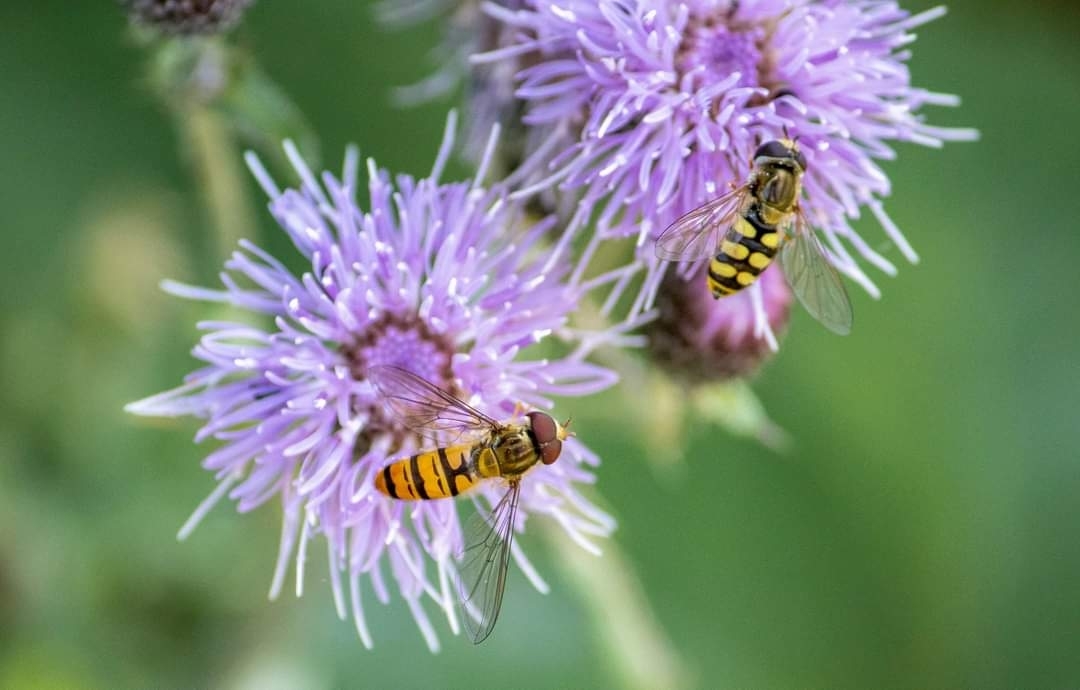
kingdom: Animalia
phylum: Arthropoda
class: Insecta
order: Diptera
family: Syrphidae
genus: Episyrphus
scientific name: Episyrphus balteatus
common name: Marmalade hoverfly
